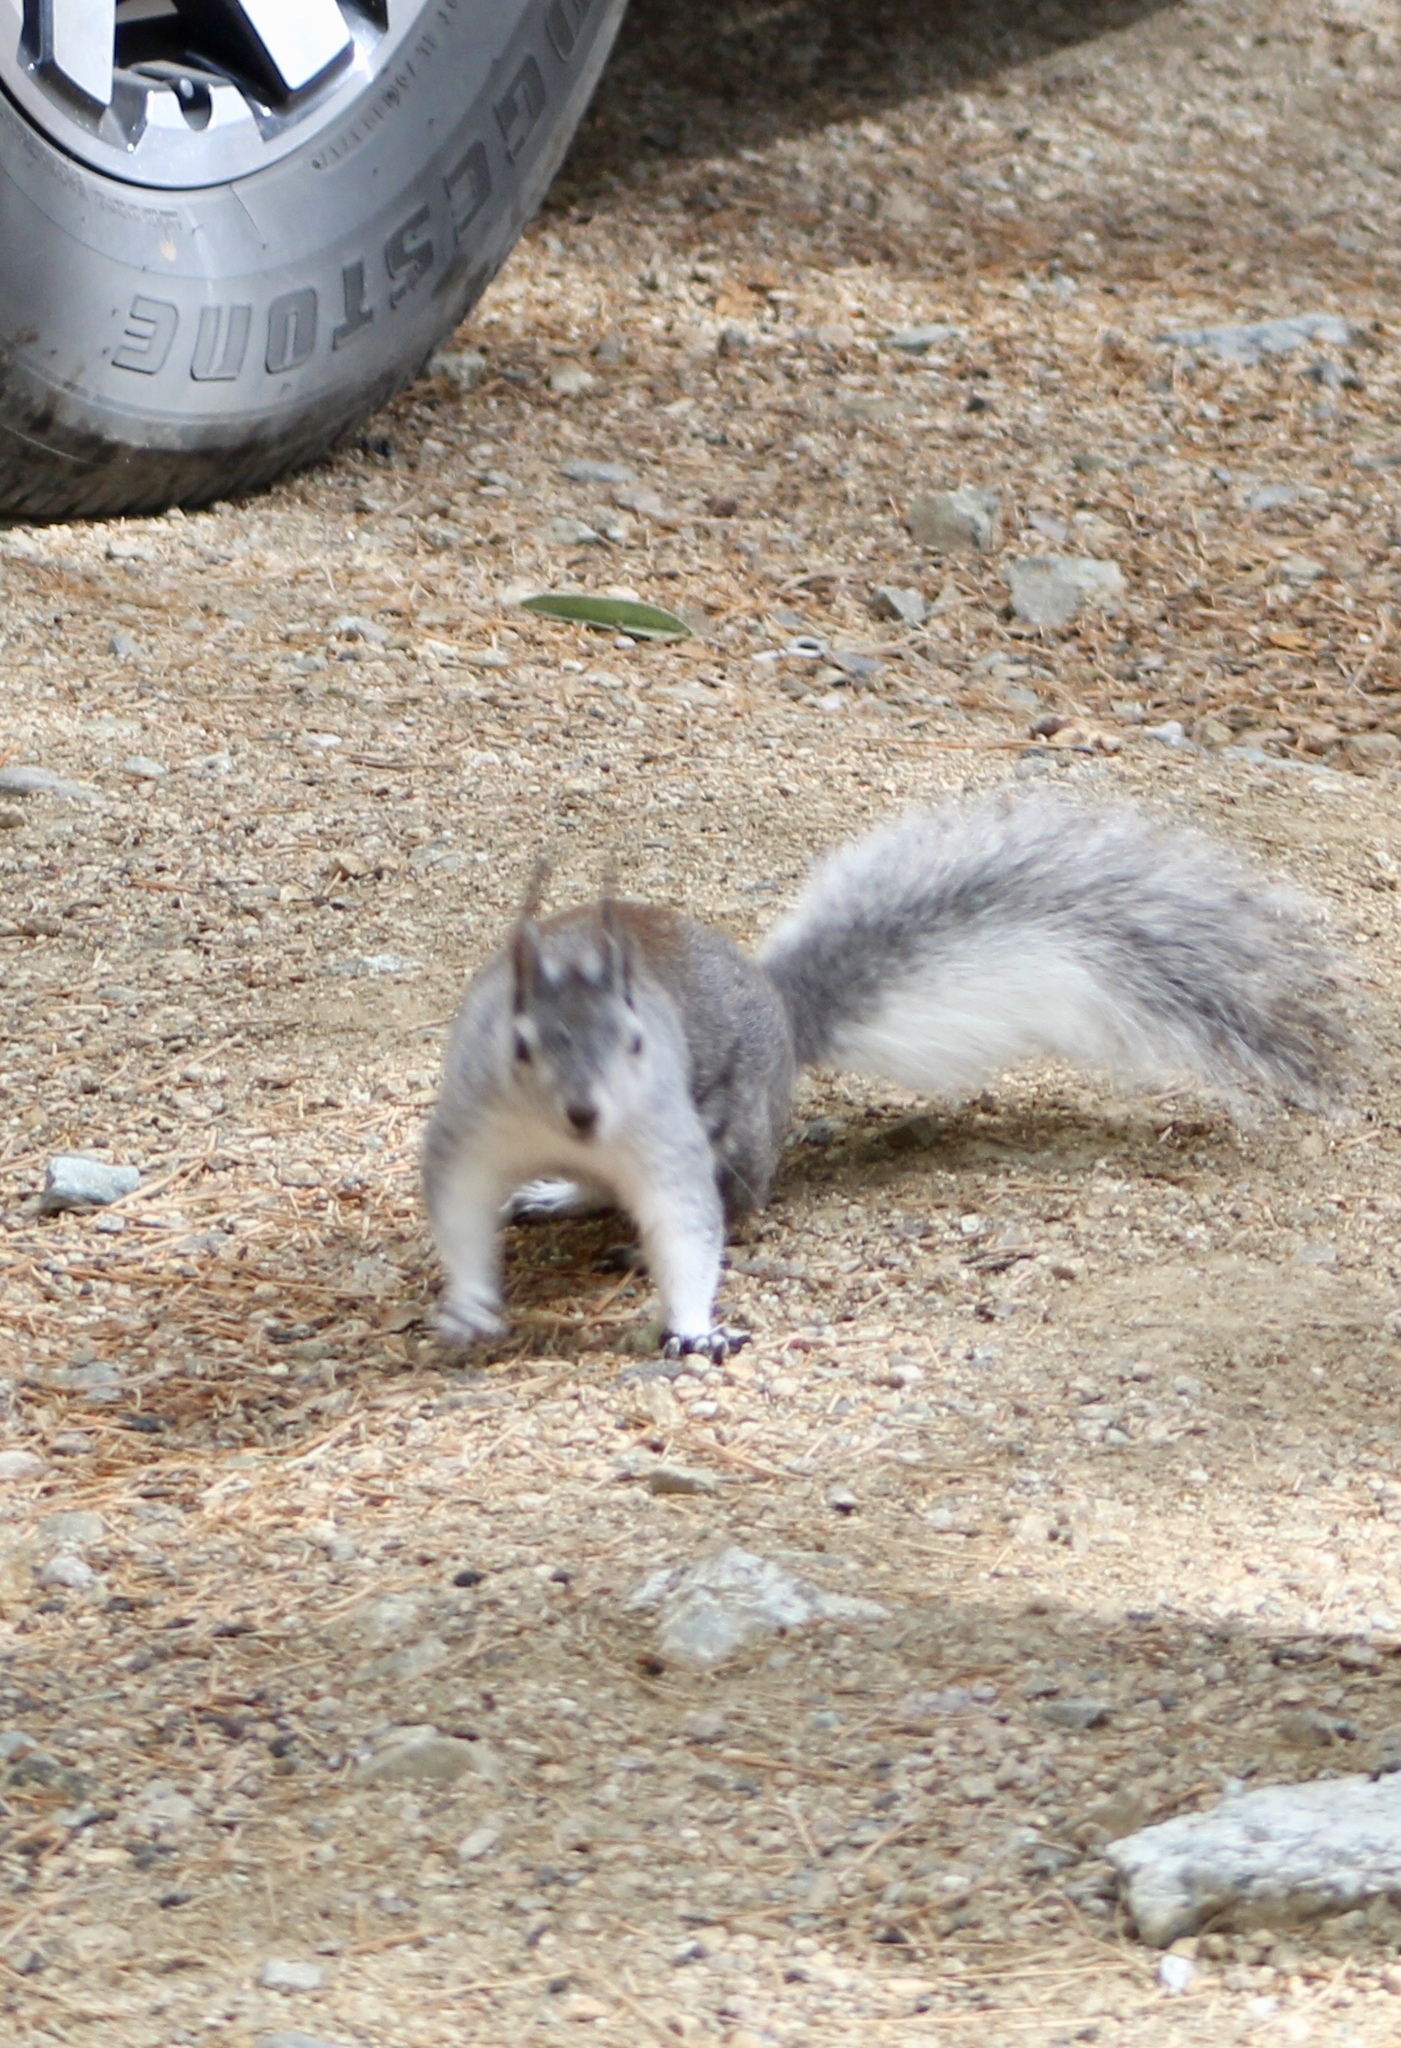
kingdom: Animalia
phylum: Chordata
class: Mammalia
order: Rodentia
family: Sciuridae
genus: Sciurus
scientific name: Sciurus aberti
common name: Abert's squirrel
